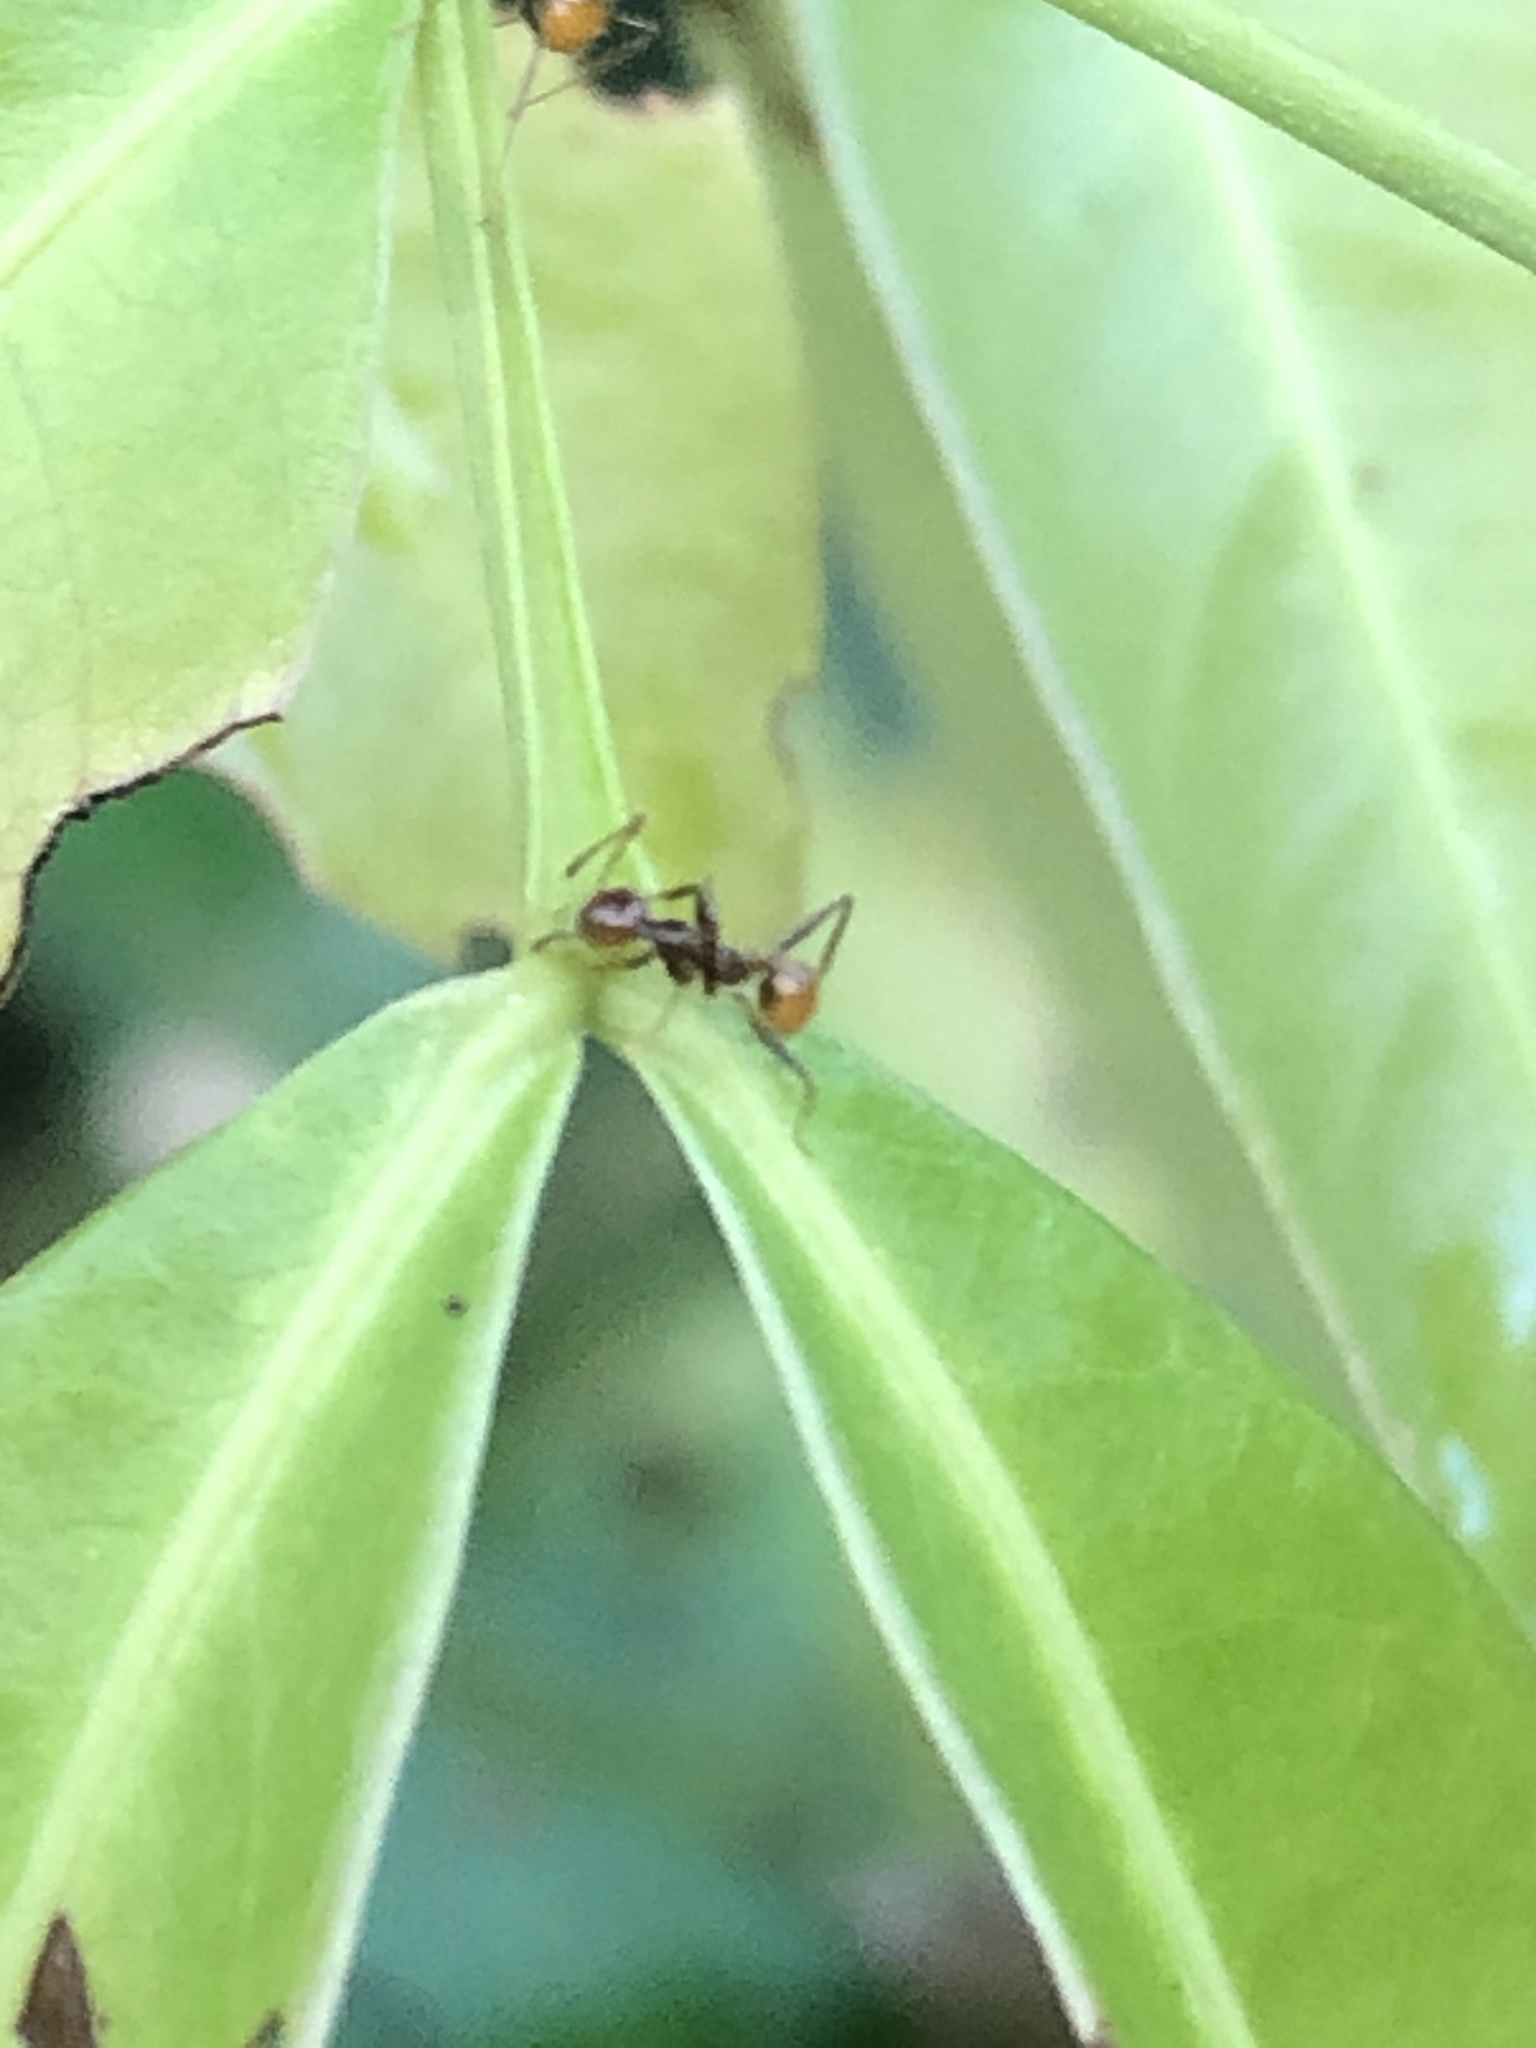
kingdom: Animalia
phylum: Arthropoda
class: Insecta
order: Hymenoptera
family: Formicidae
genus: Pheidole
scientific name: Pheidole xanthogaster
